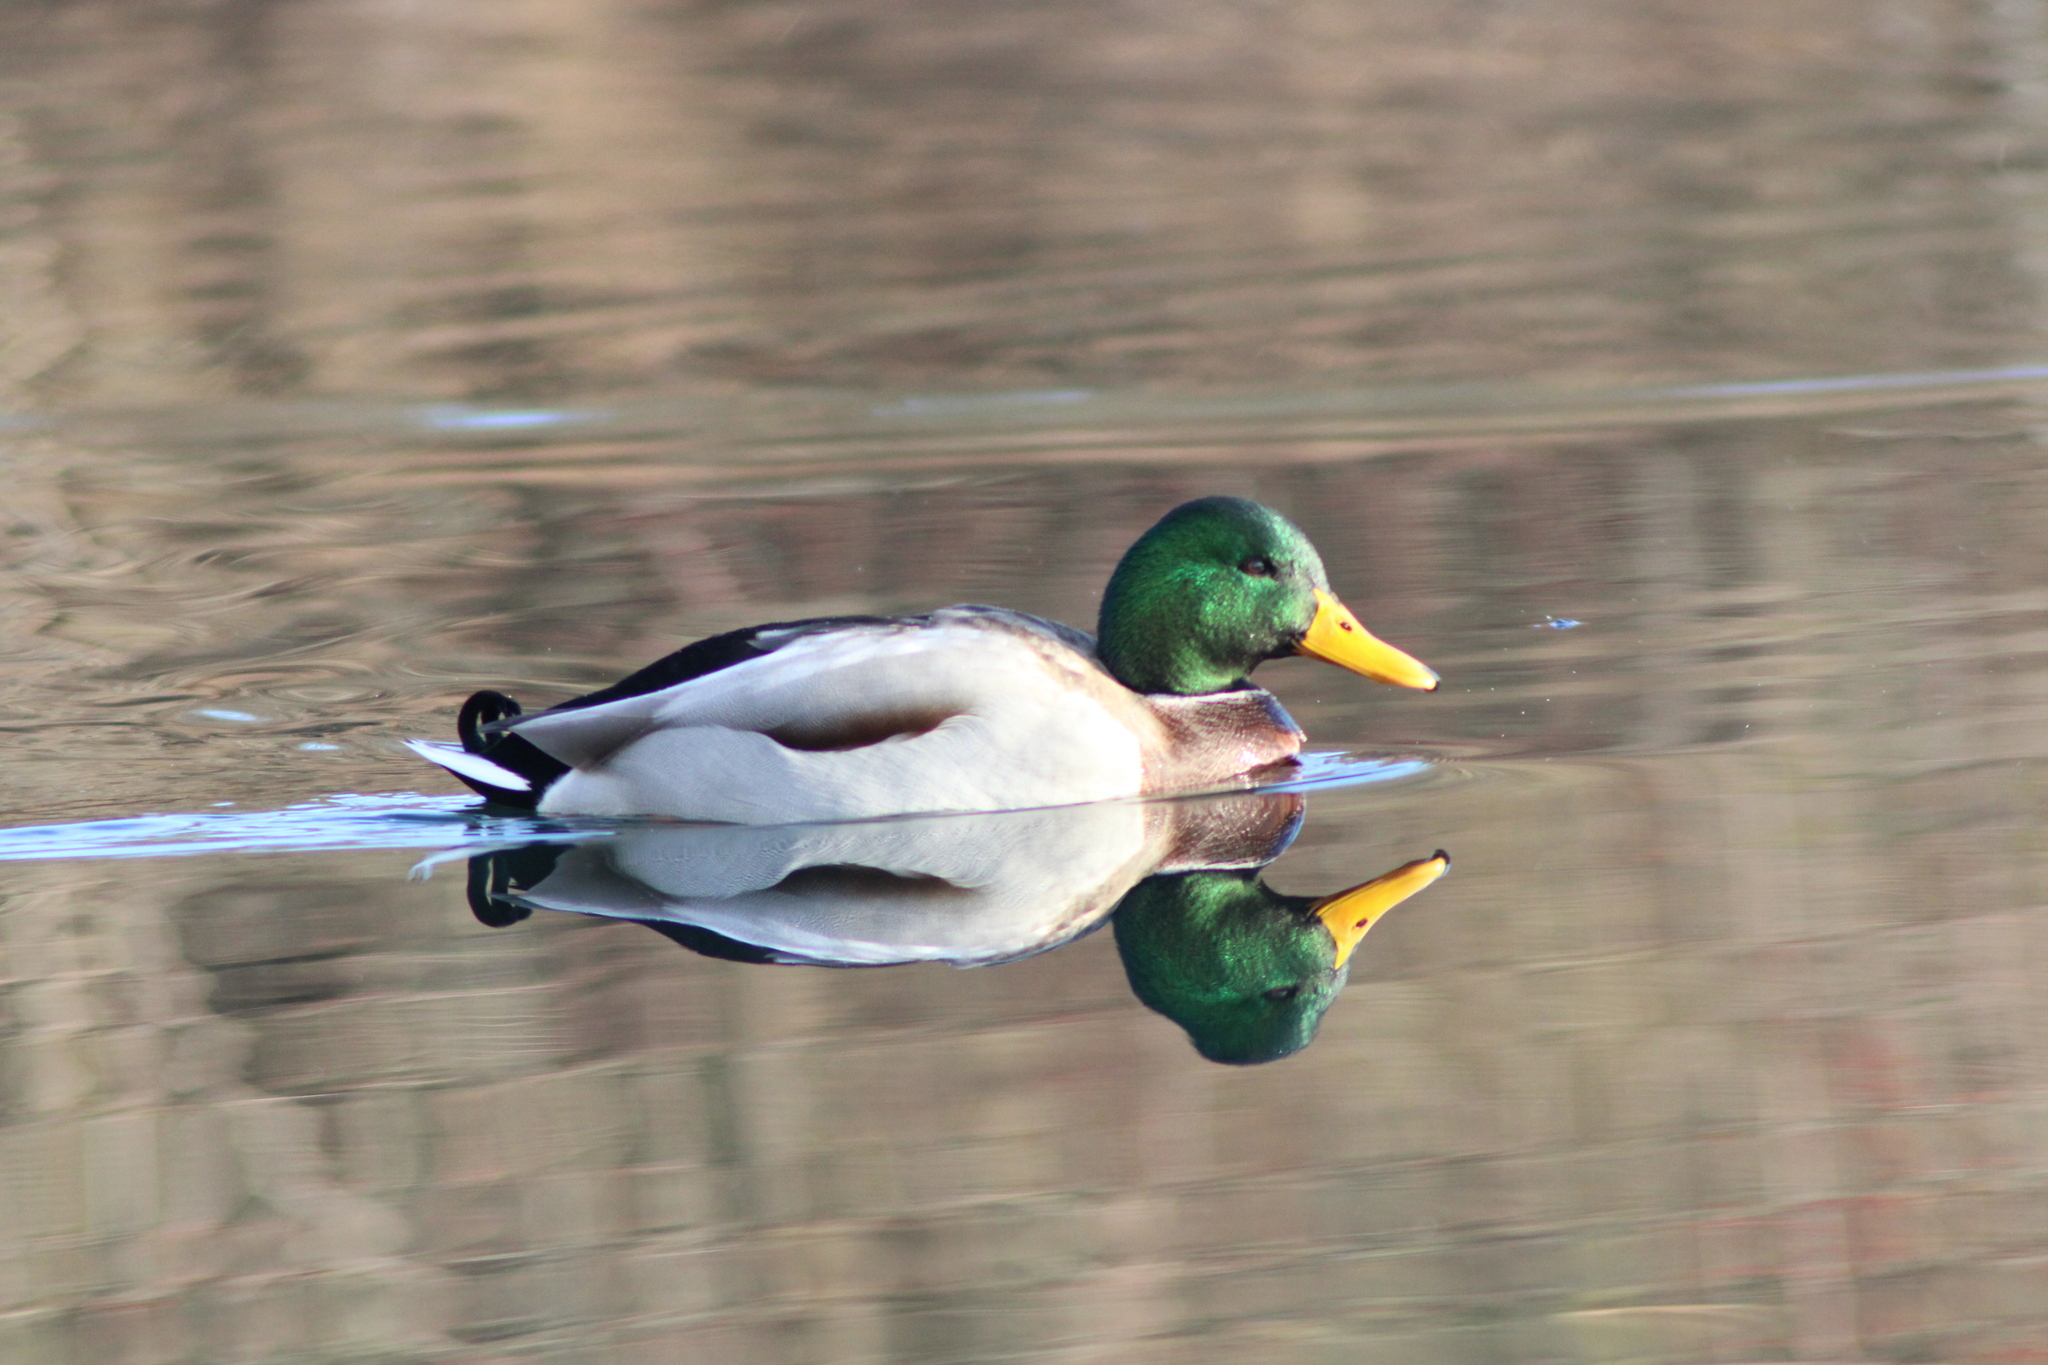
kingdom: Animalia
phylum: Chordata
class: Aves
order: Anseriformes
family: Anatidae
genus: Anas
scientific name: Anas platyrhynchos
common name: Mallard
